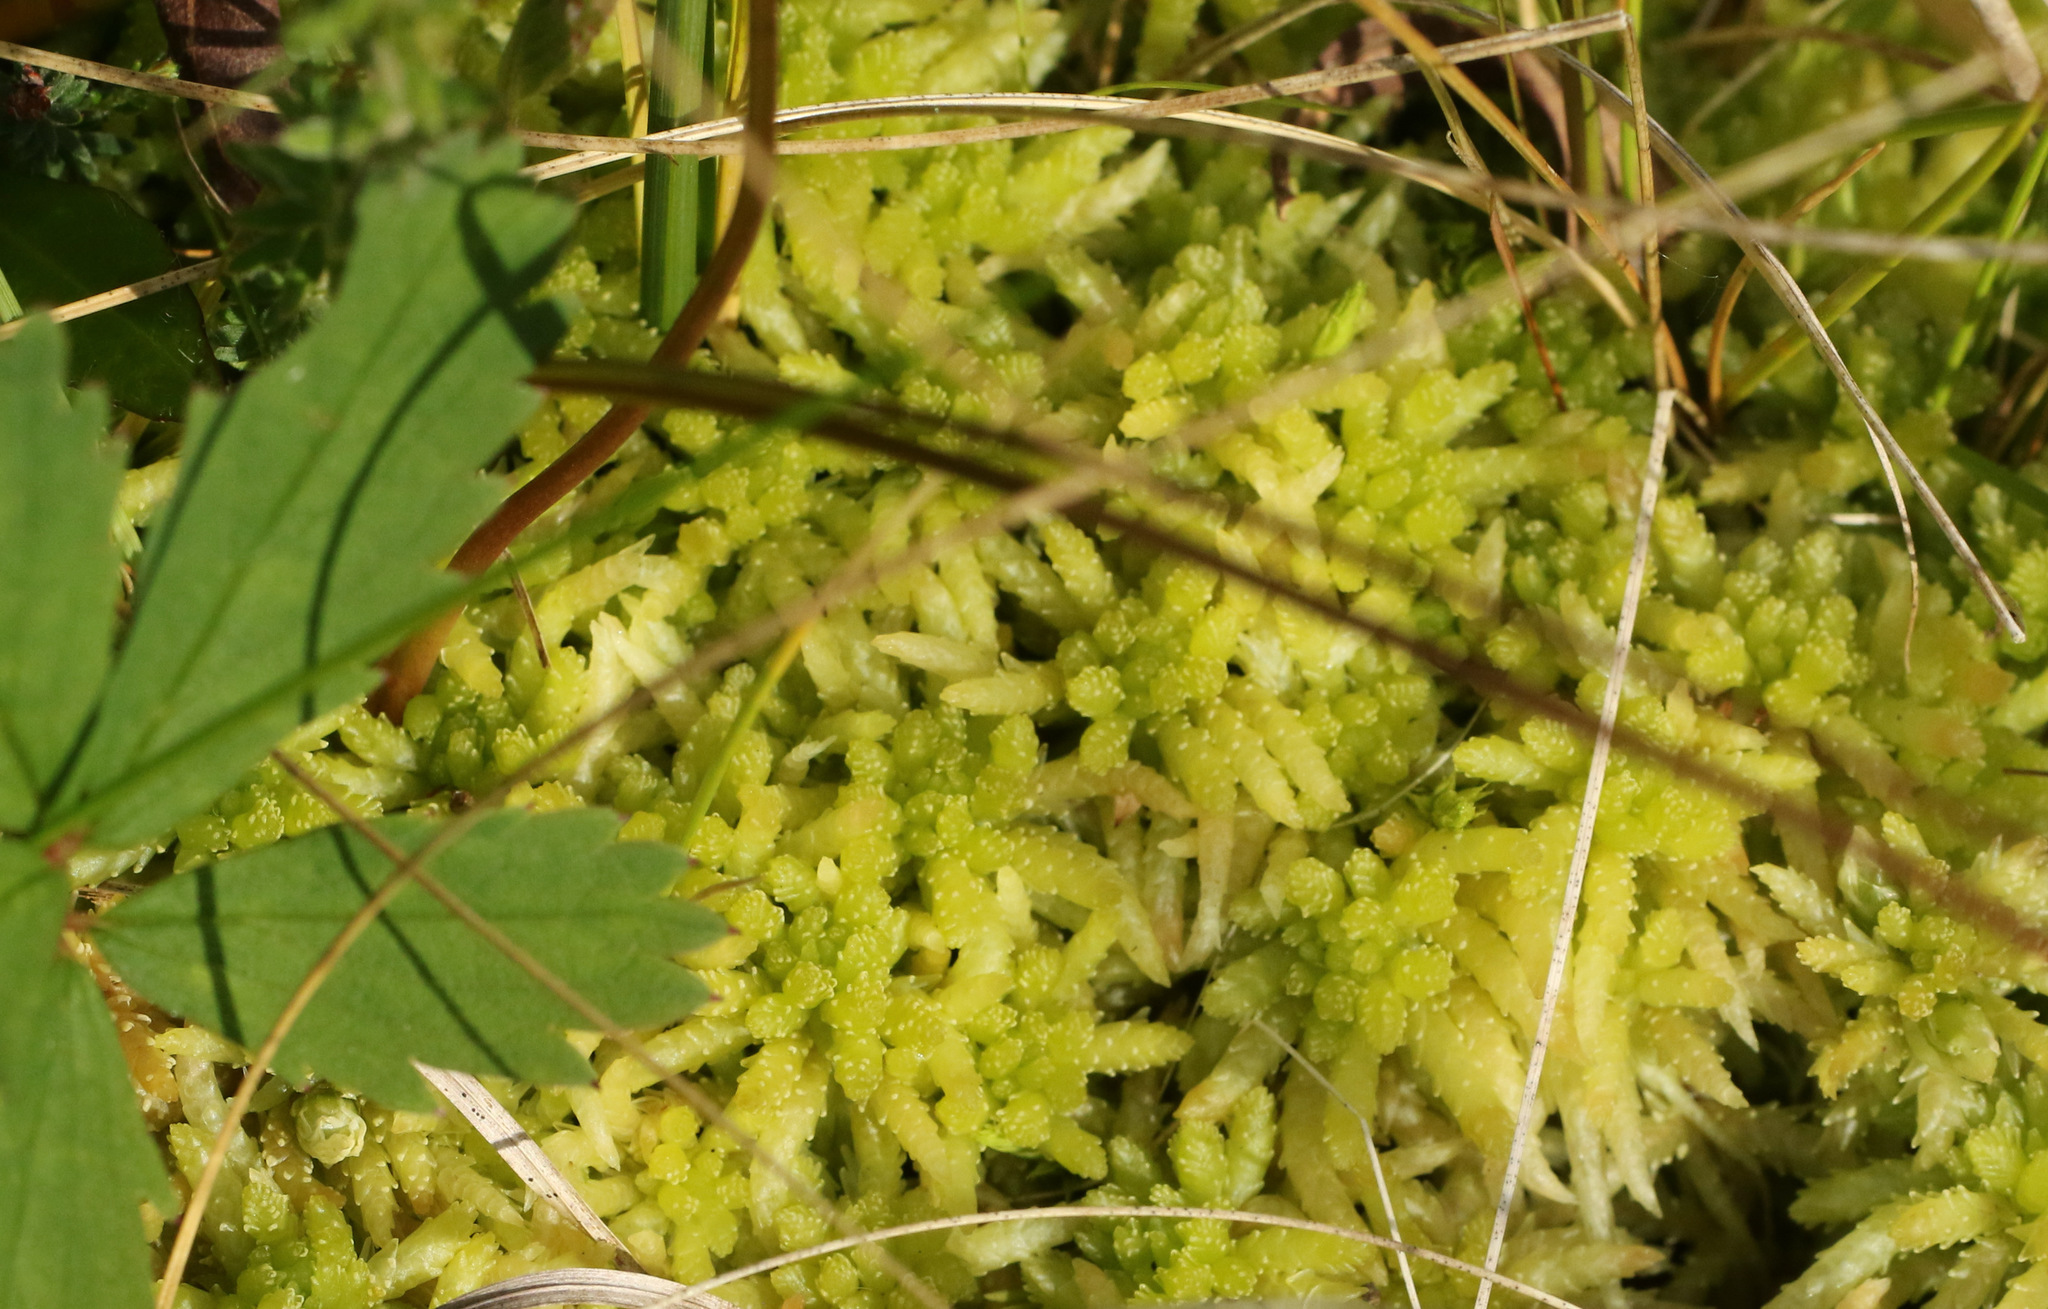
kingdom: Plantae
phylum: Bryophyta
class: Sphagnopsida
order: Sphagnales
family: Sphagnaceae
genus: Sphagnum
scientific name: Sphagnum palustre
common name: Blunt-leaved bog-moss
